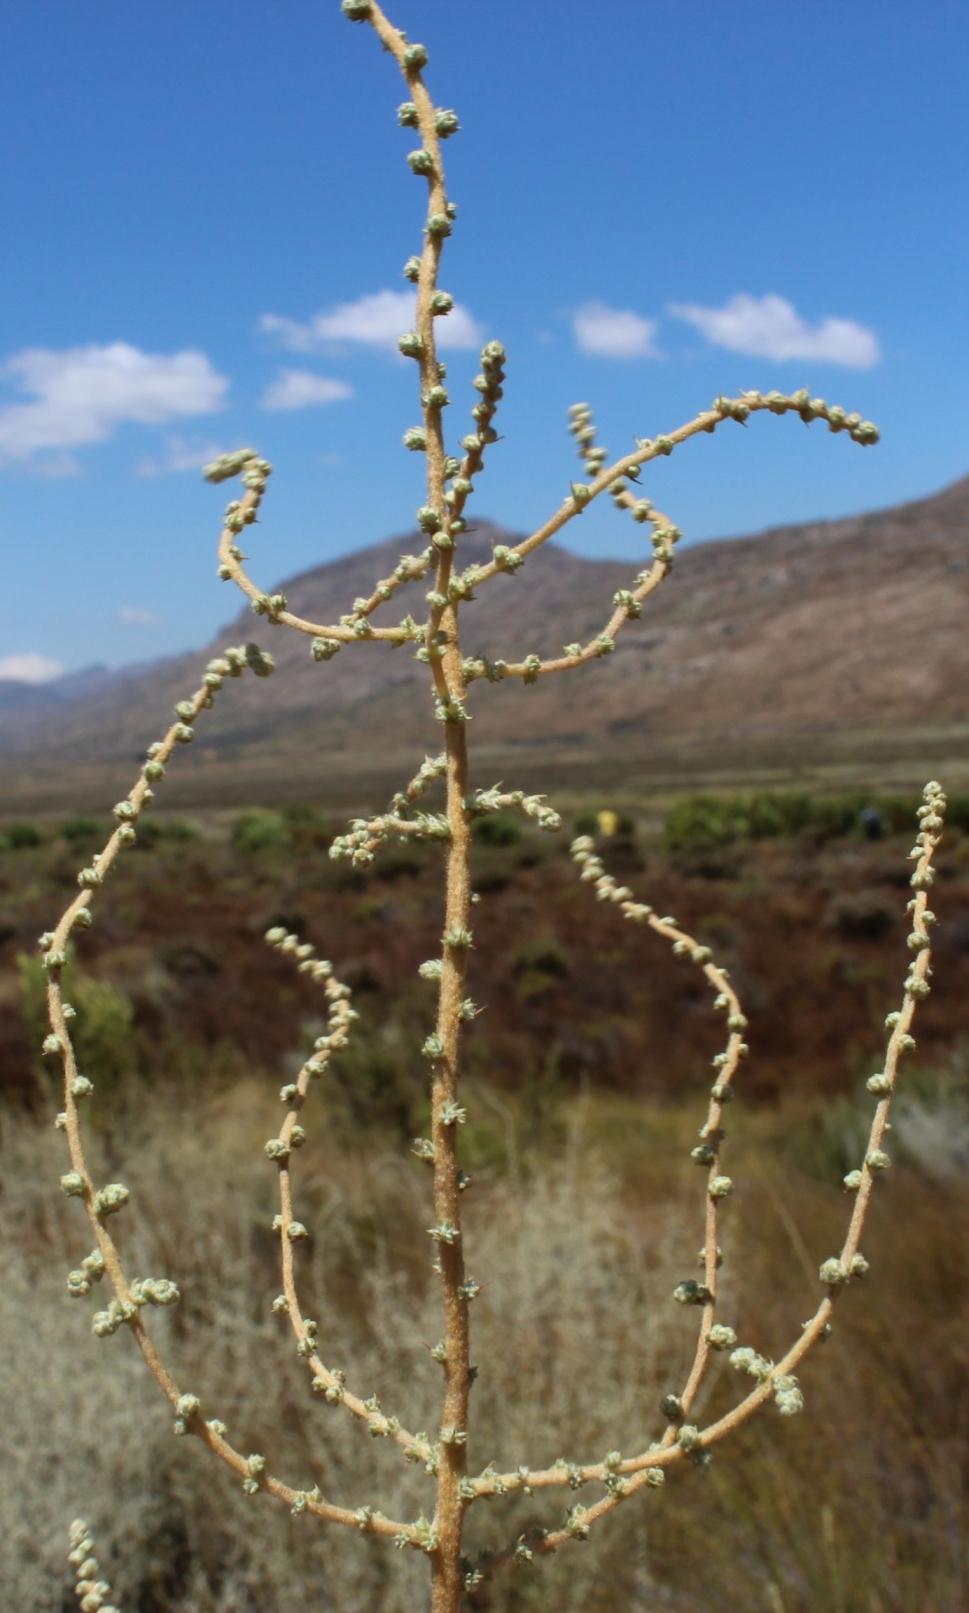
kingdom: Plantae
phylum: Tracheophyta
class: Magnoliopsida
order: Asterales
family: Asteraceae
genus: Seriphium
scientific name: Seriphium plumosum
